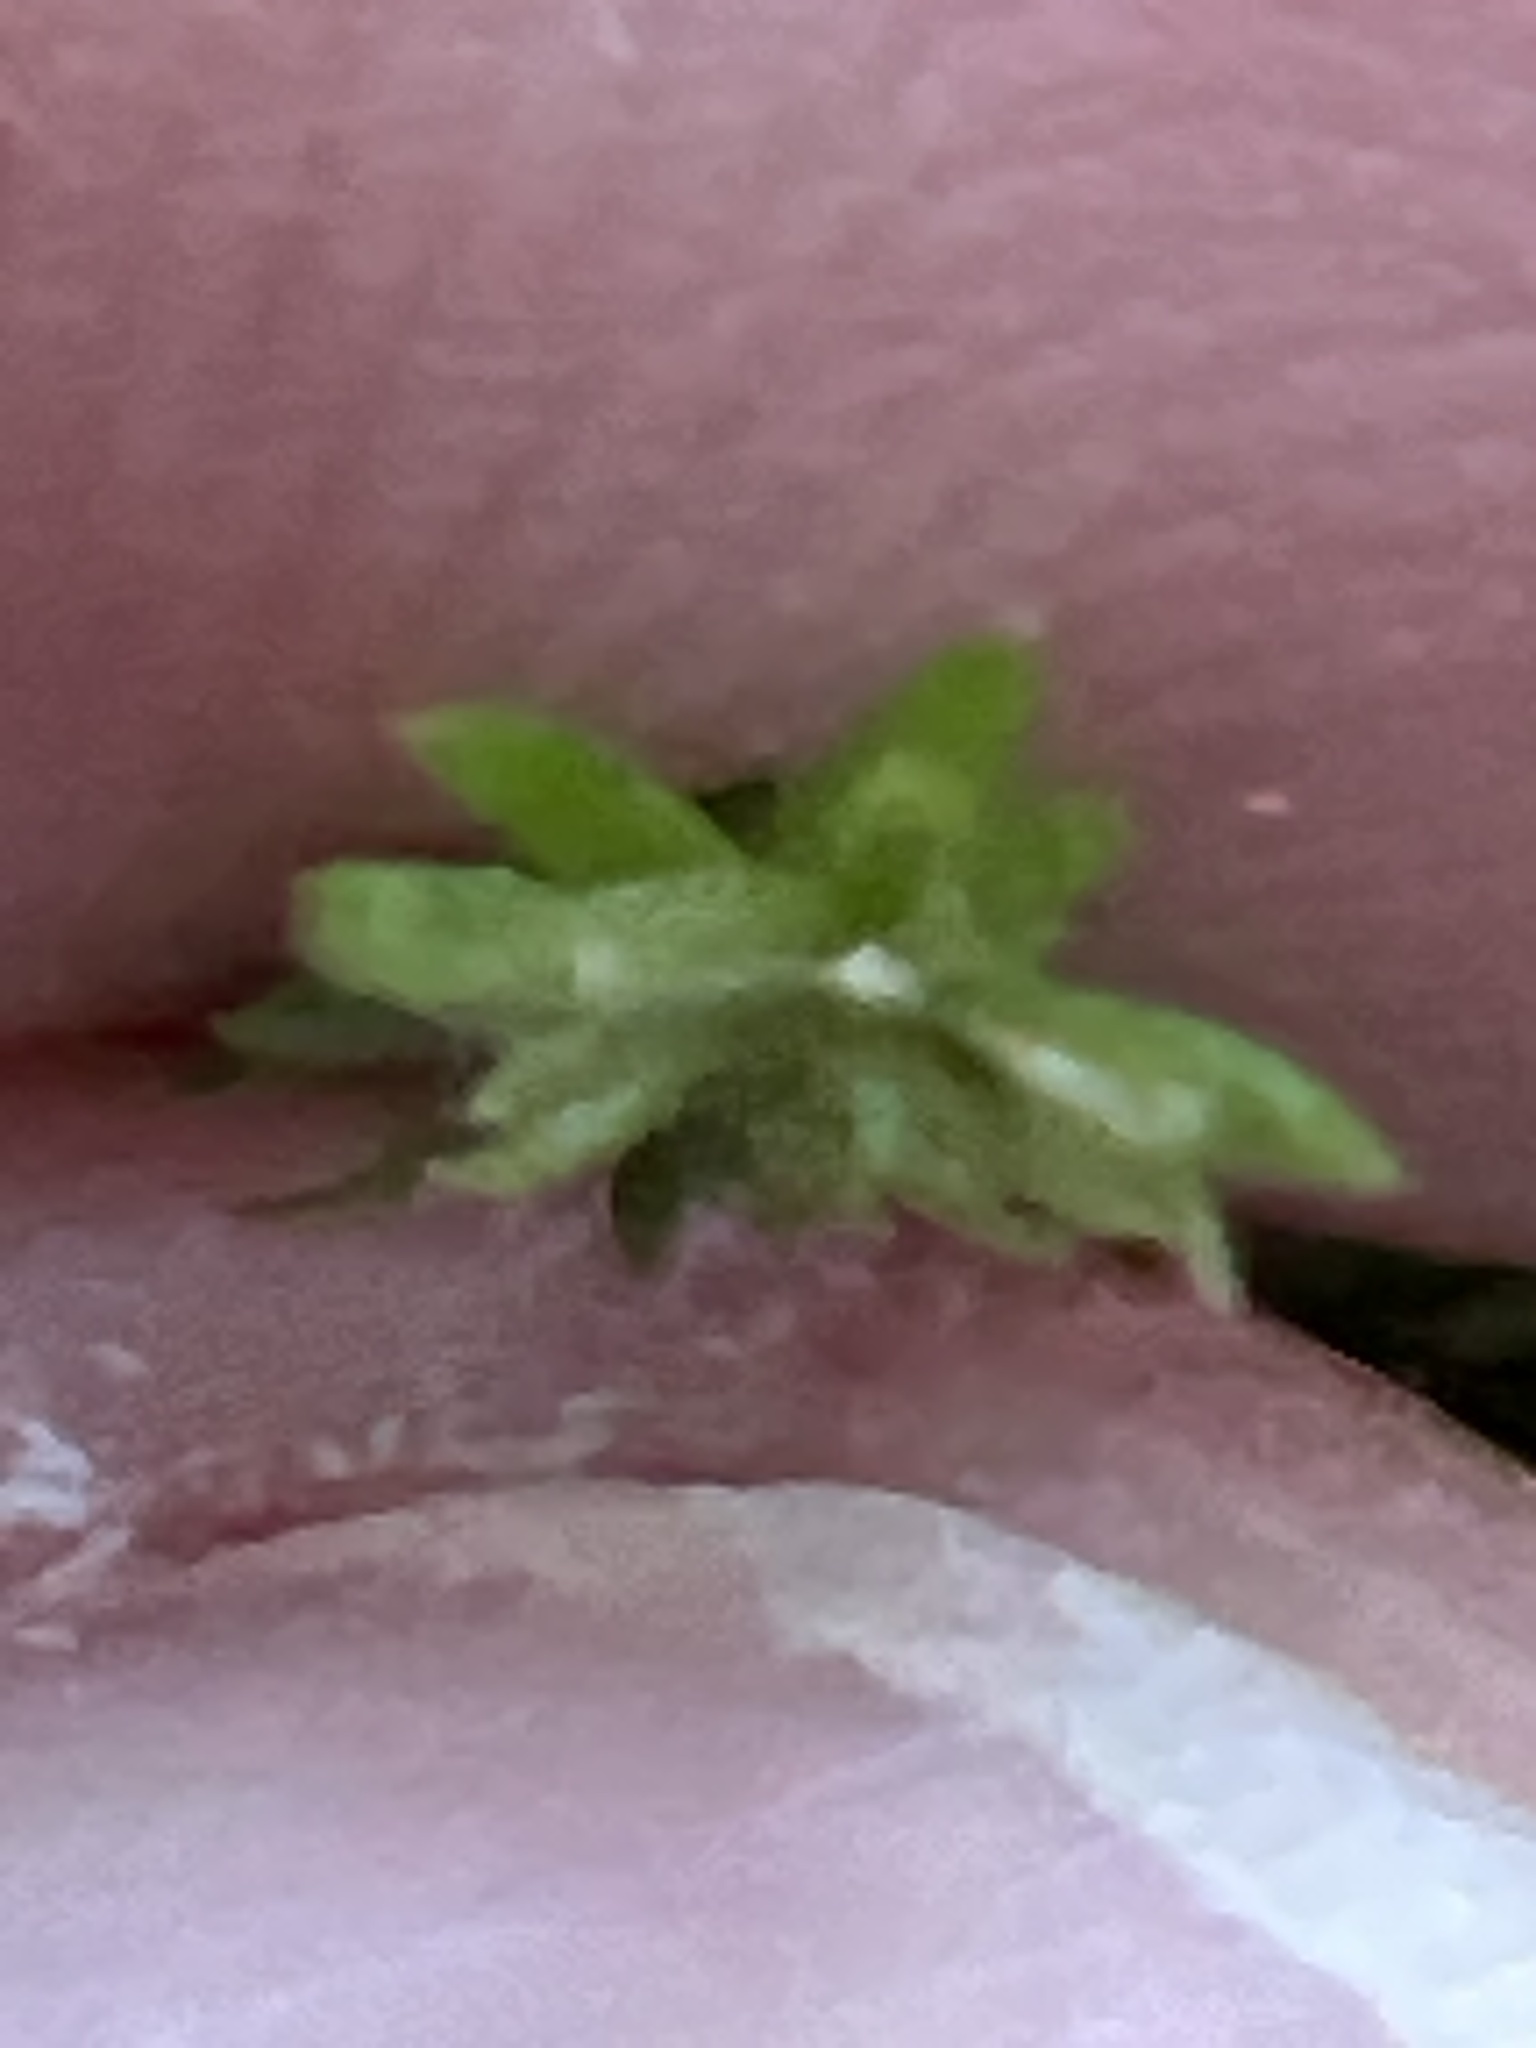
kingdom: Plantae
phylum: Tracheophyta
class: Lycopodiopsida
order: Lycopodiales
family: Lycopodiaceae
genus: Dendrolycopodium
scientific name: Dendrolycopodium obscurum
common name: Common ground-pine
